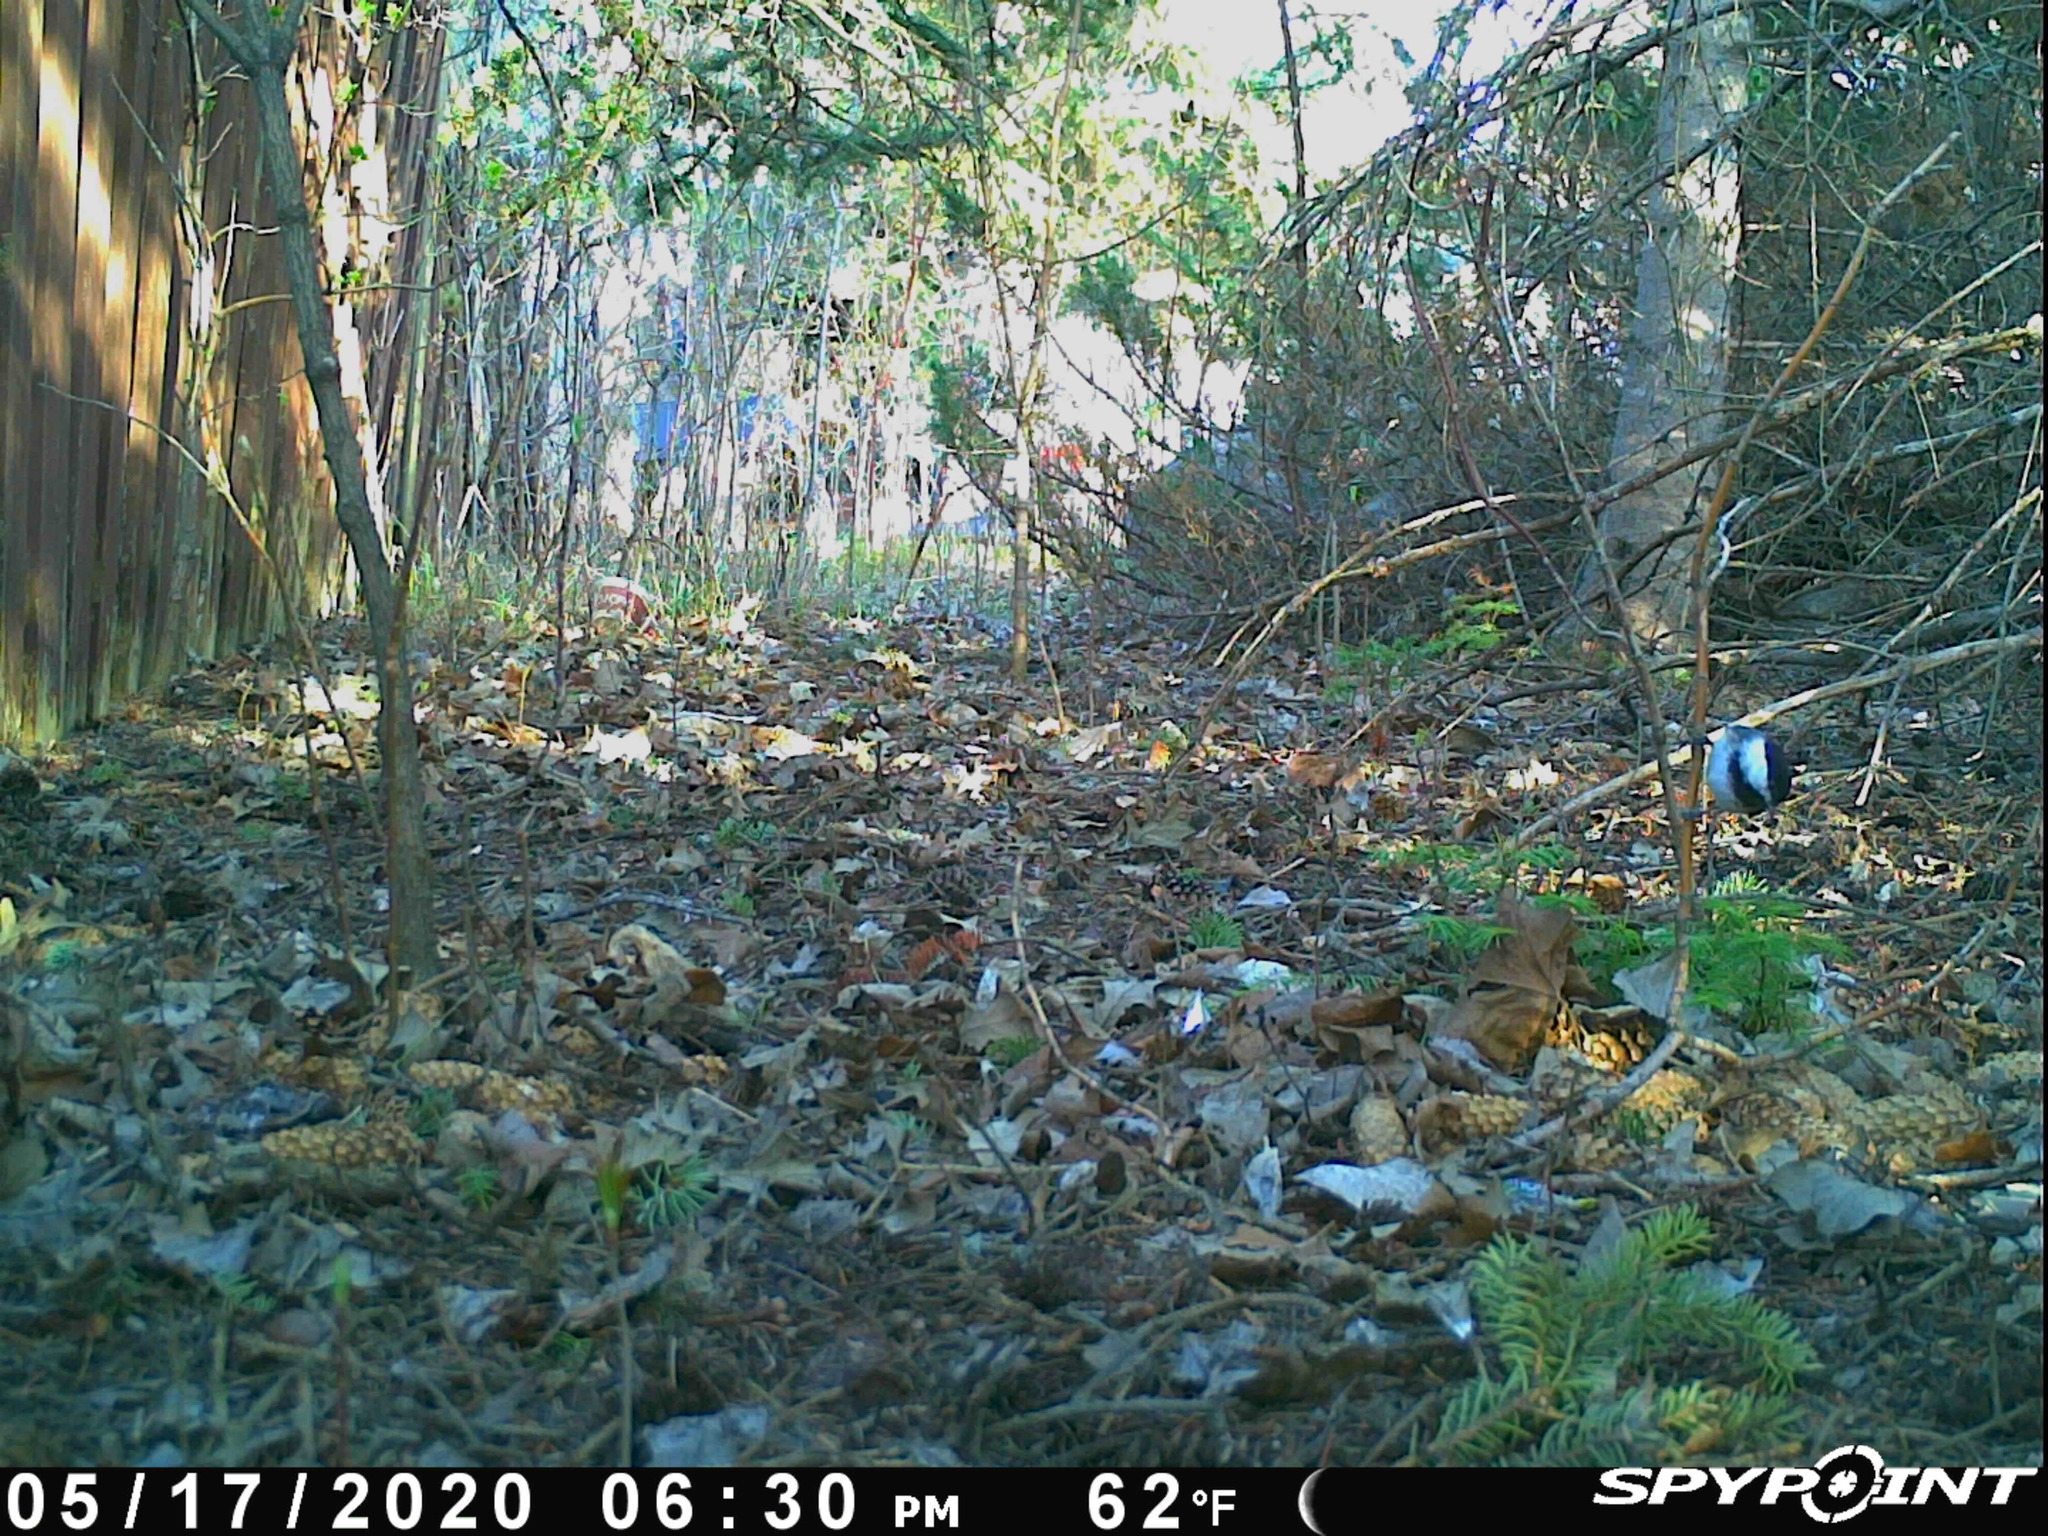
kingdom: Animalia
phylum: Chordata
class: Aves
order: Passeriformes
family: Paridae
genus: Poecile
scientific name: Poecile atricapillus
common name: Black-capped chickadee
